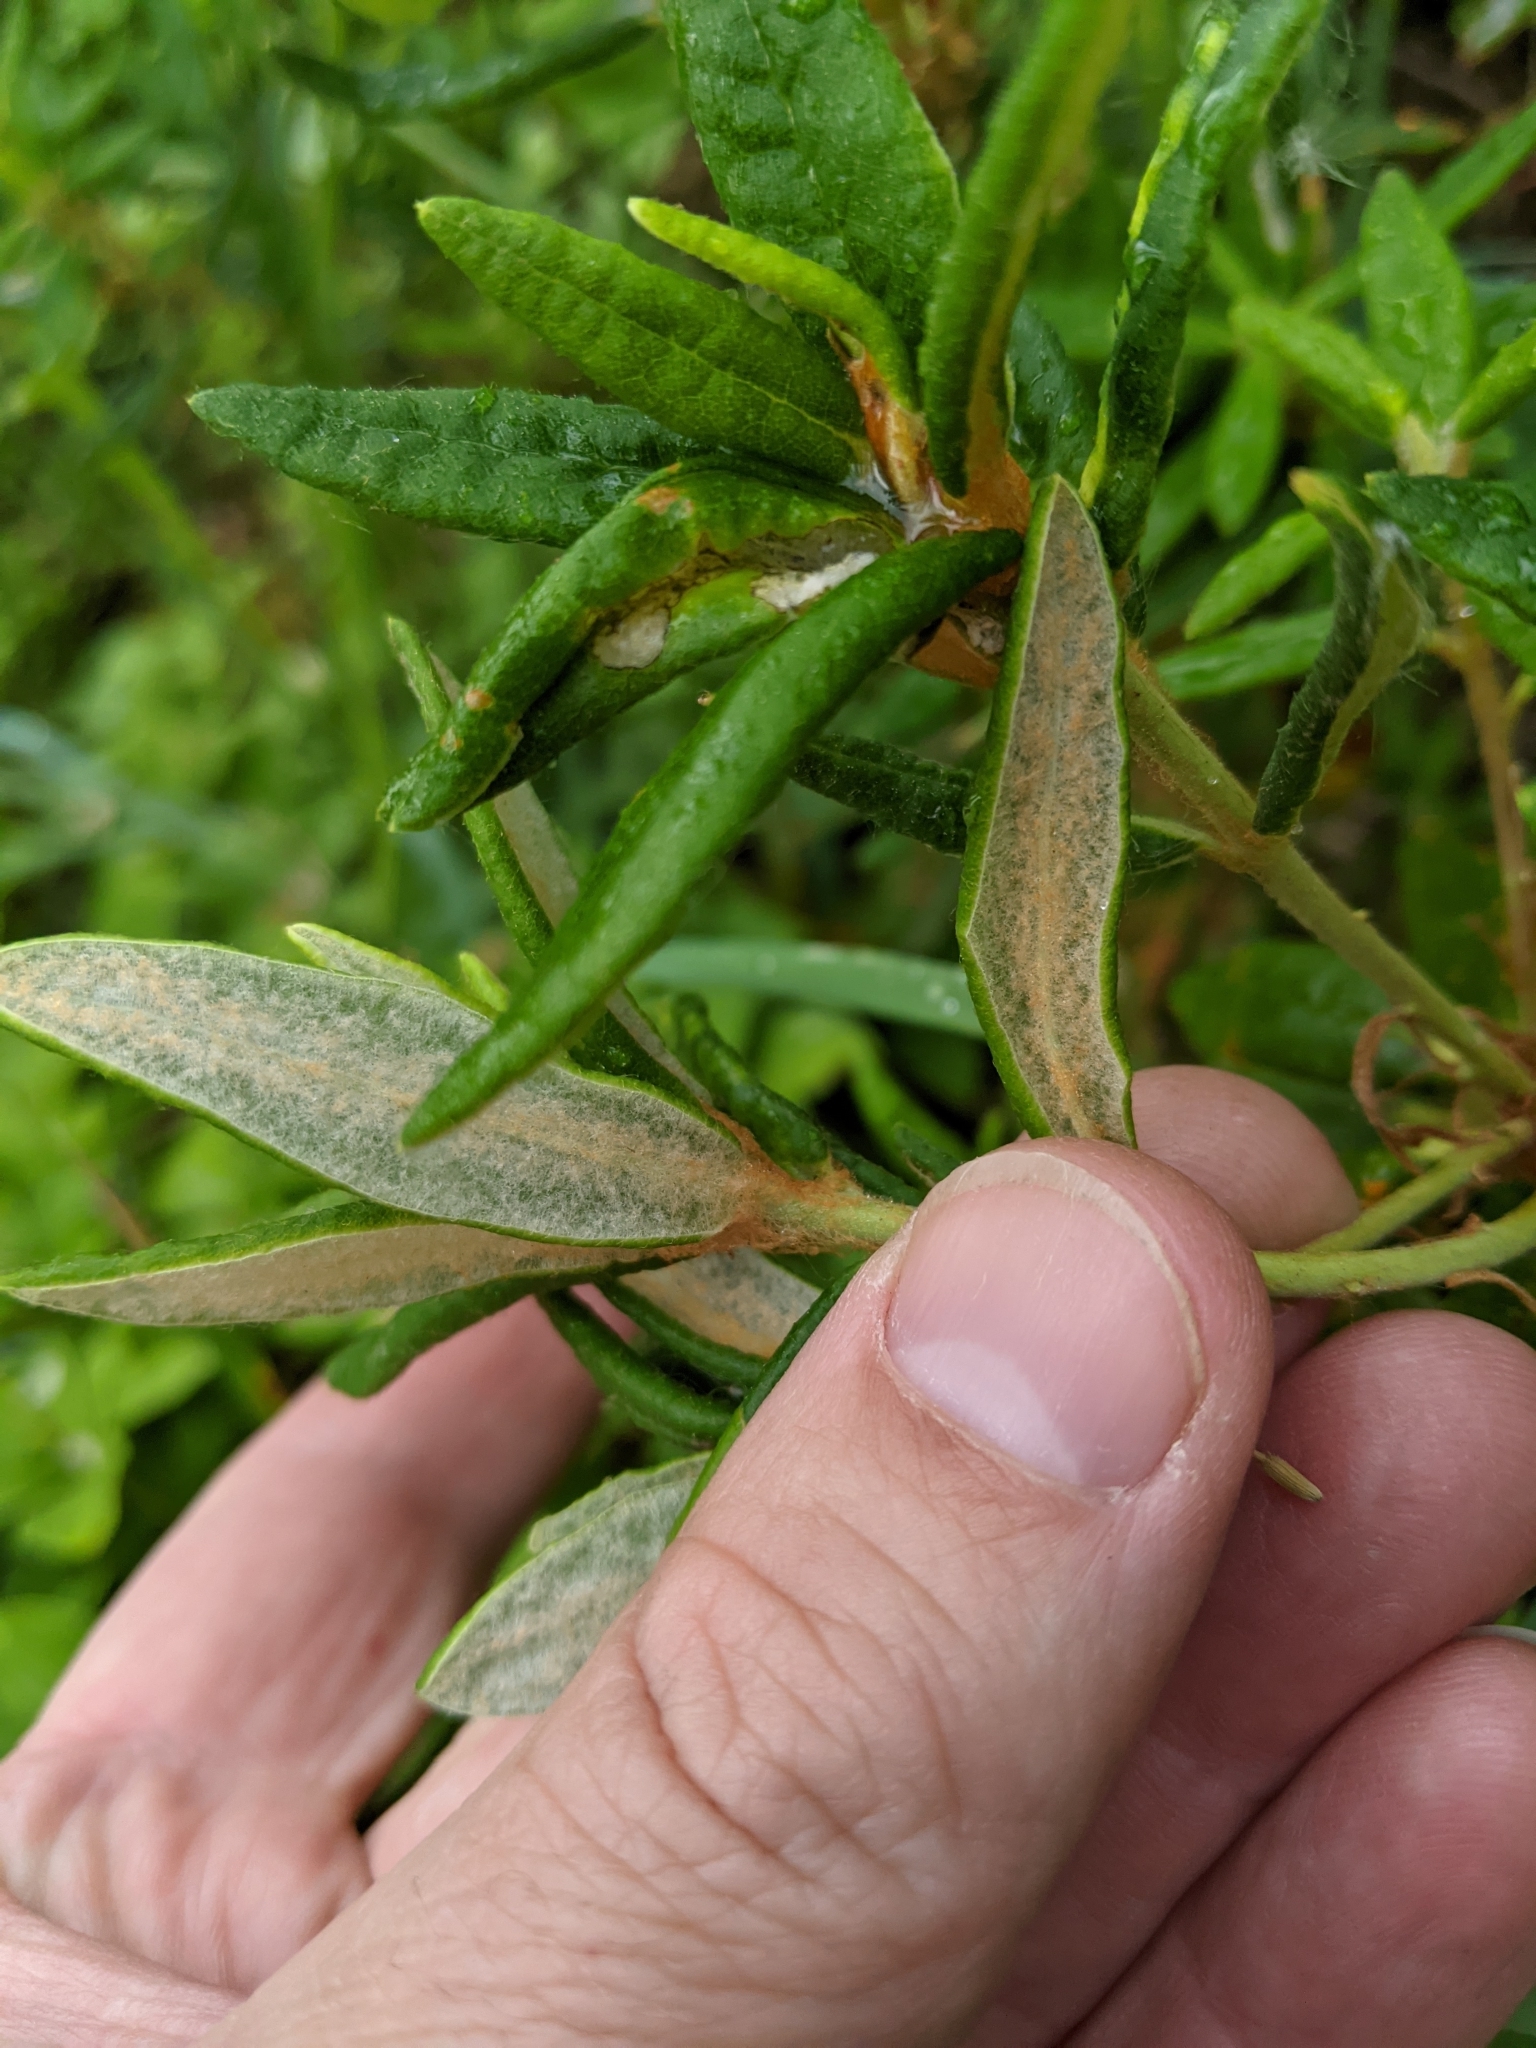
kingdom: Plantae
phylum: Tracheophyta
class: Magnoliopsida
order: Ericales
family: Ericaceae
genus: Rhododendron
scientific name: Rhododendron groenlandicum
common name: Bog labrador tea
